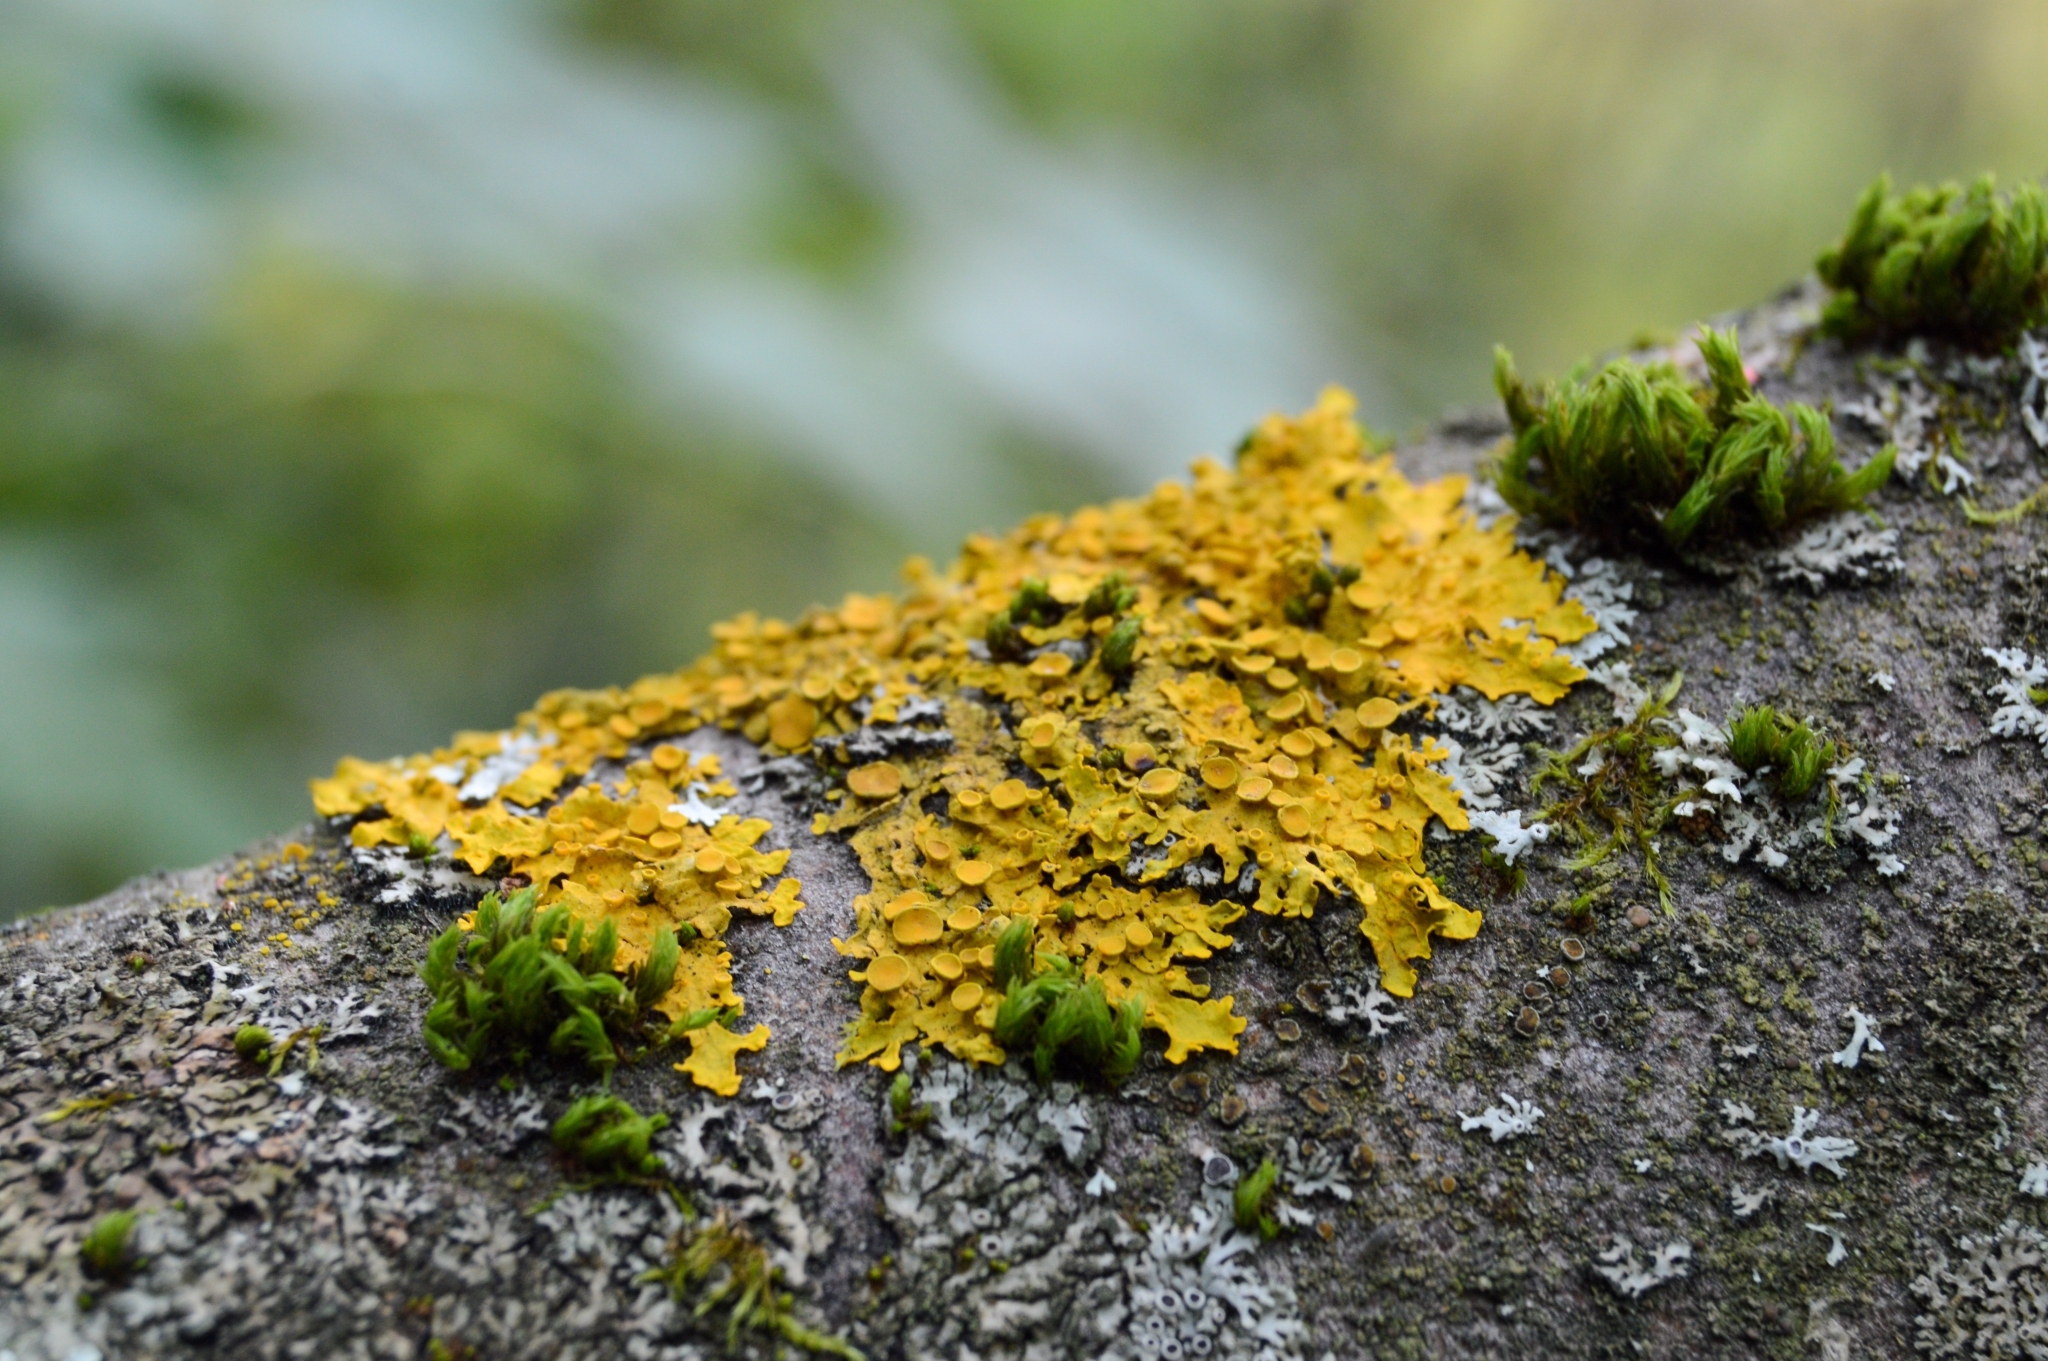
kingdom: Fungi
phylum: Ascomycota
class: Lecanoromycetes
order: Teloschistales
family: Teloschistaceae
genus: Xanthoria
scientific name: Xanthoria parietina
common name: Common orange lichen
